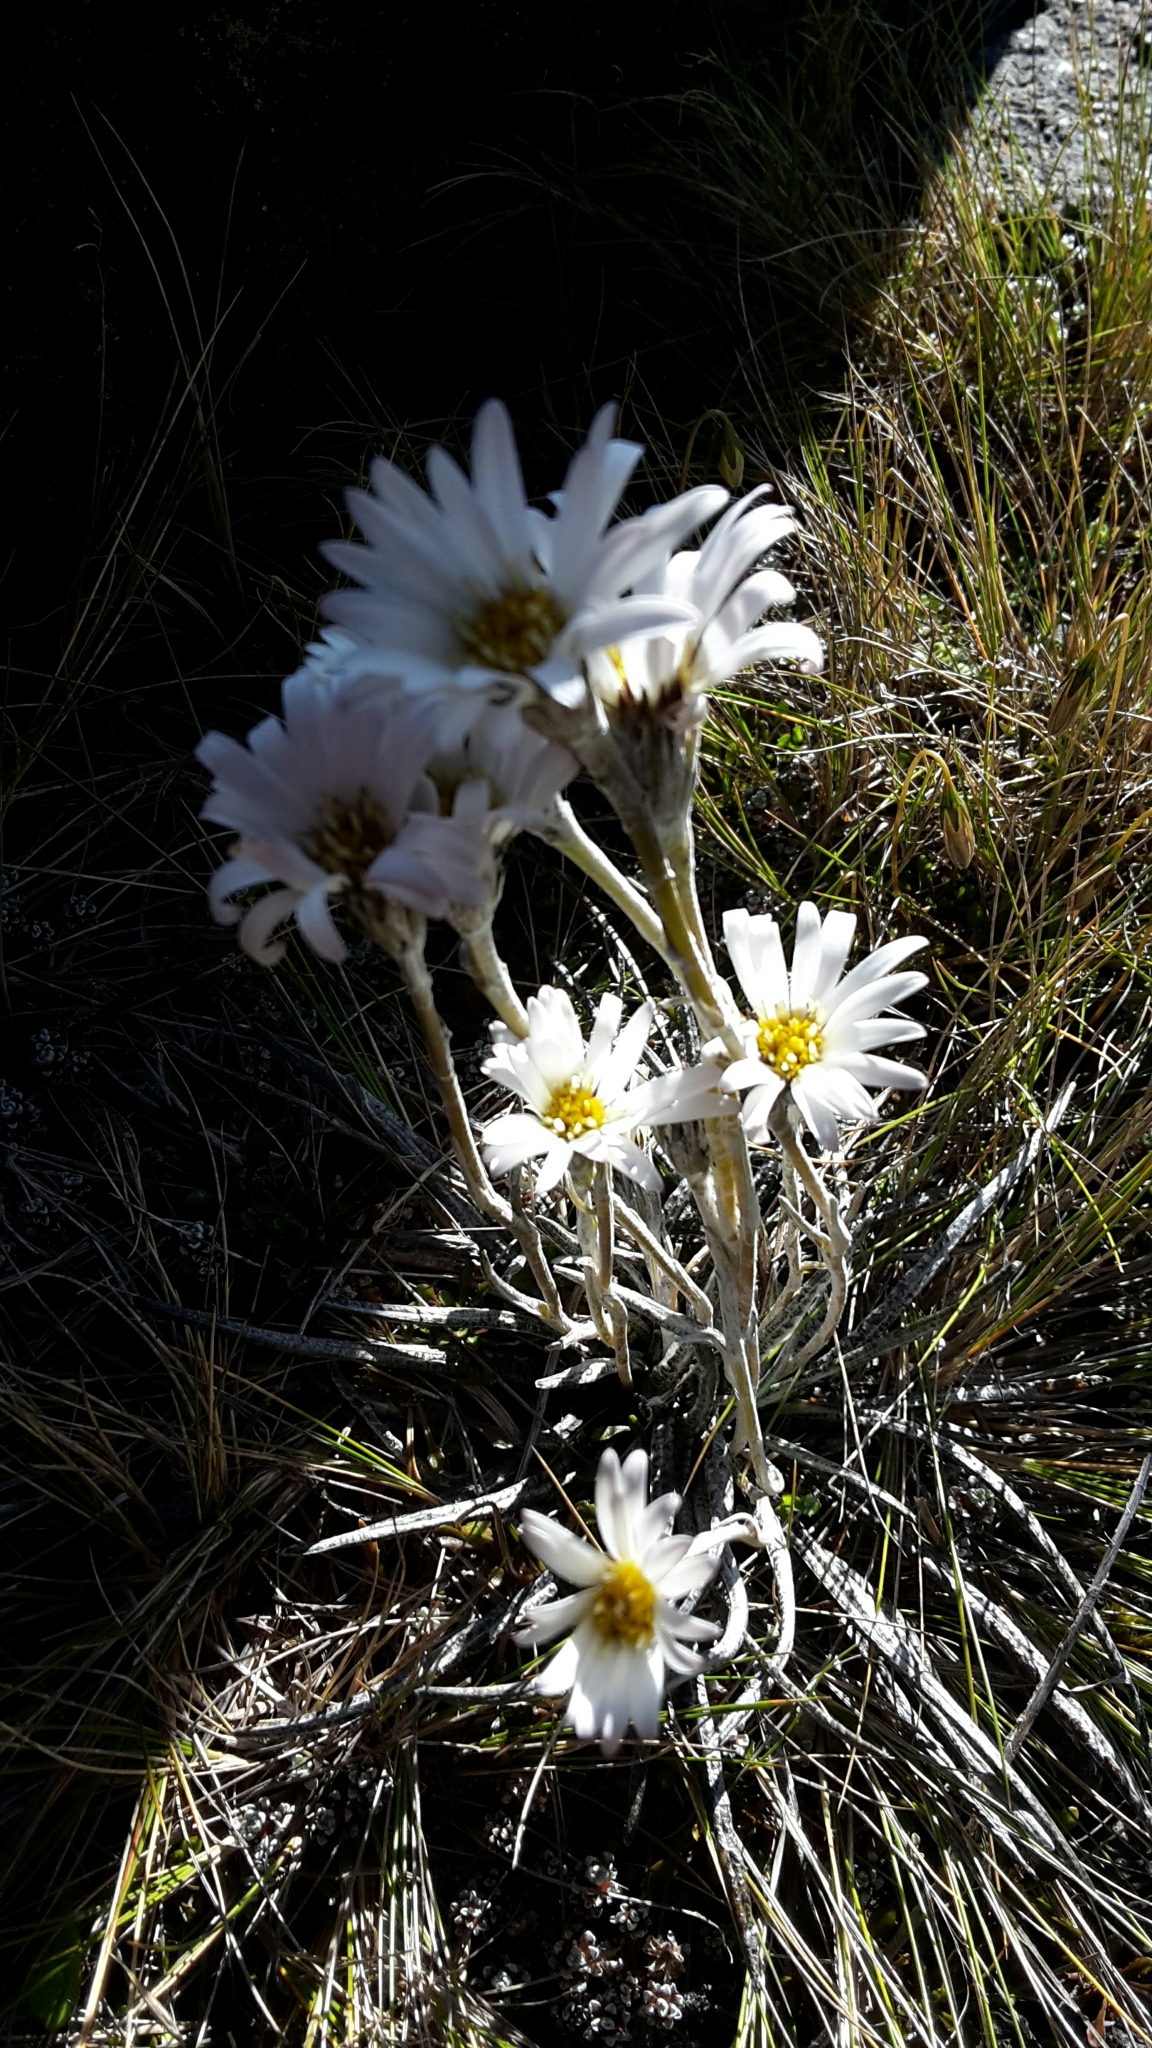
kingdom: Plantae
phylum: Tracheophyta
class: Magnoliopsida
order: Asterales
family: Asteraceae
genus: Celmisia
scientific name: Celmisia gracilenta
